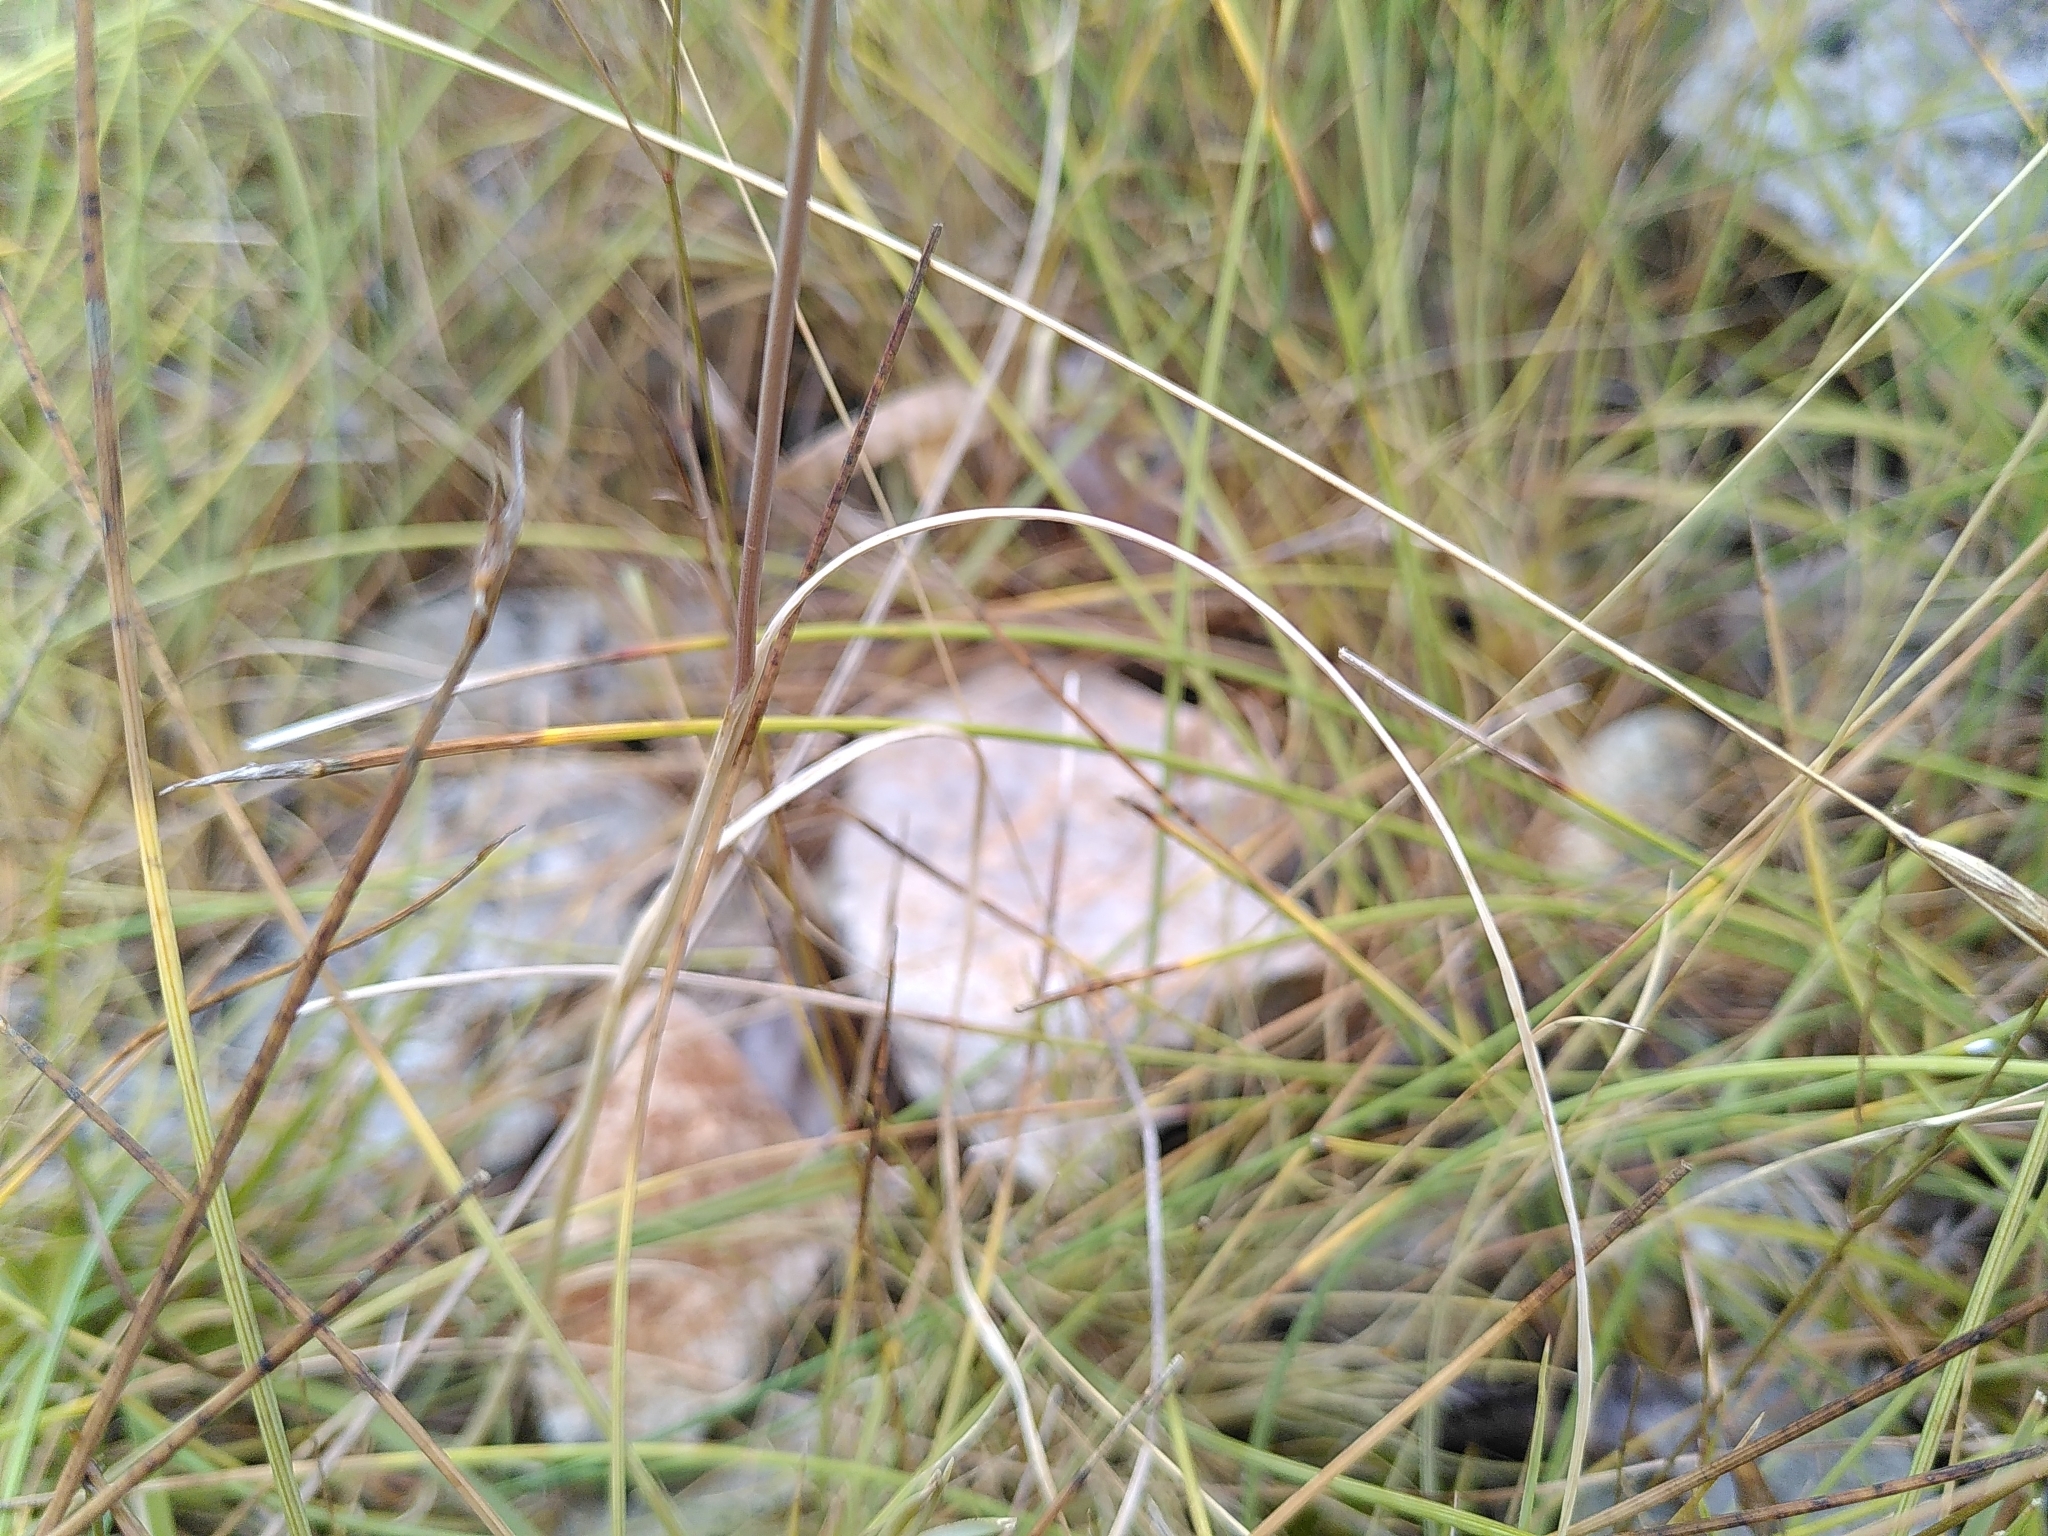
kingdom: Plantae
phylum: Tracheophyta
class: Liliopsida
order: Asparagales
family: Amaryllidaceae
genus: Allium
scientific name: Allium oporinanthum
